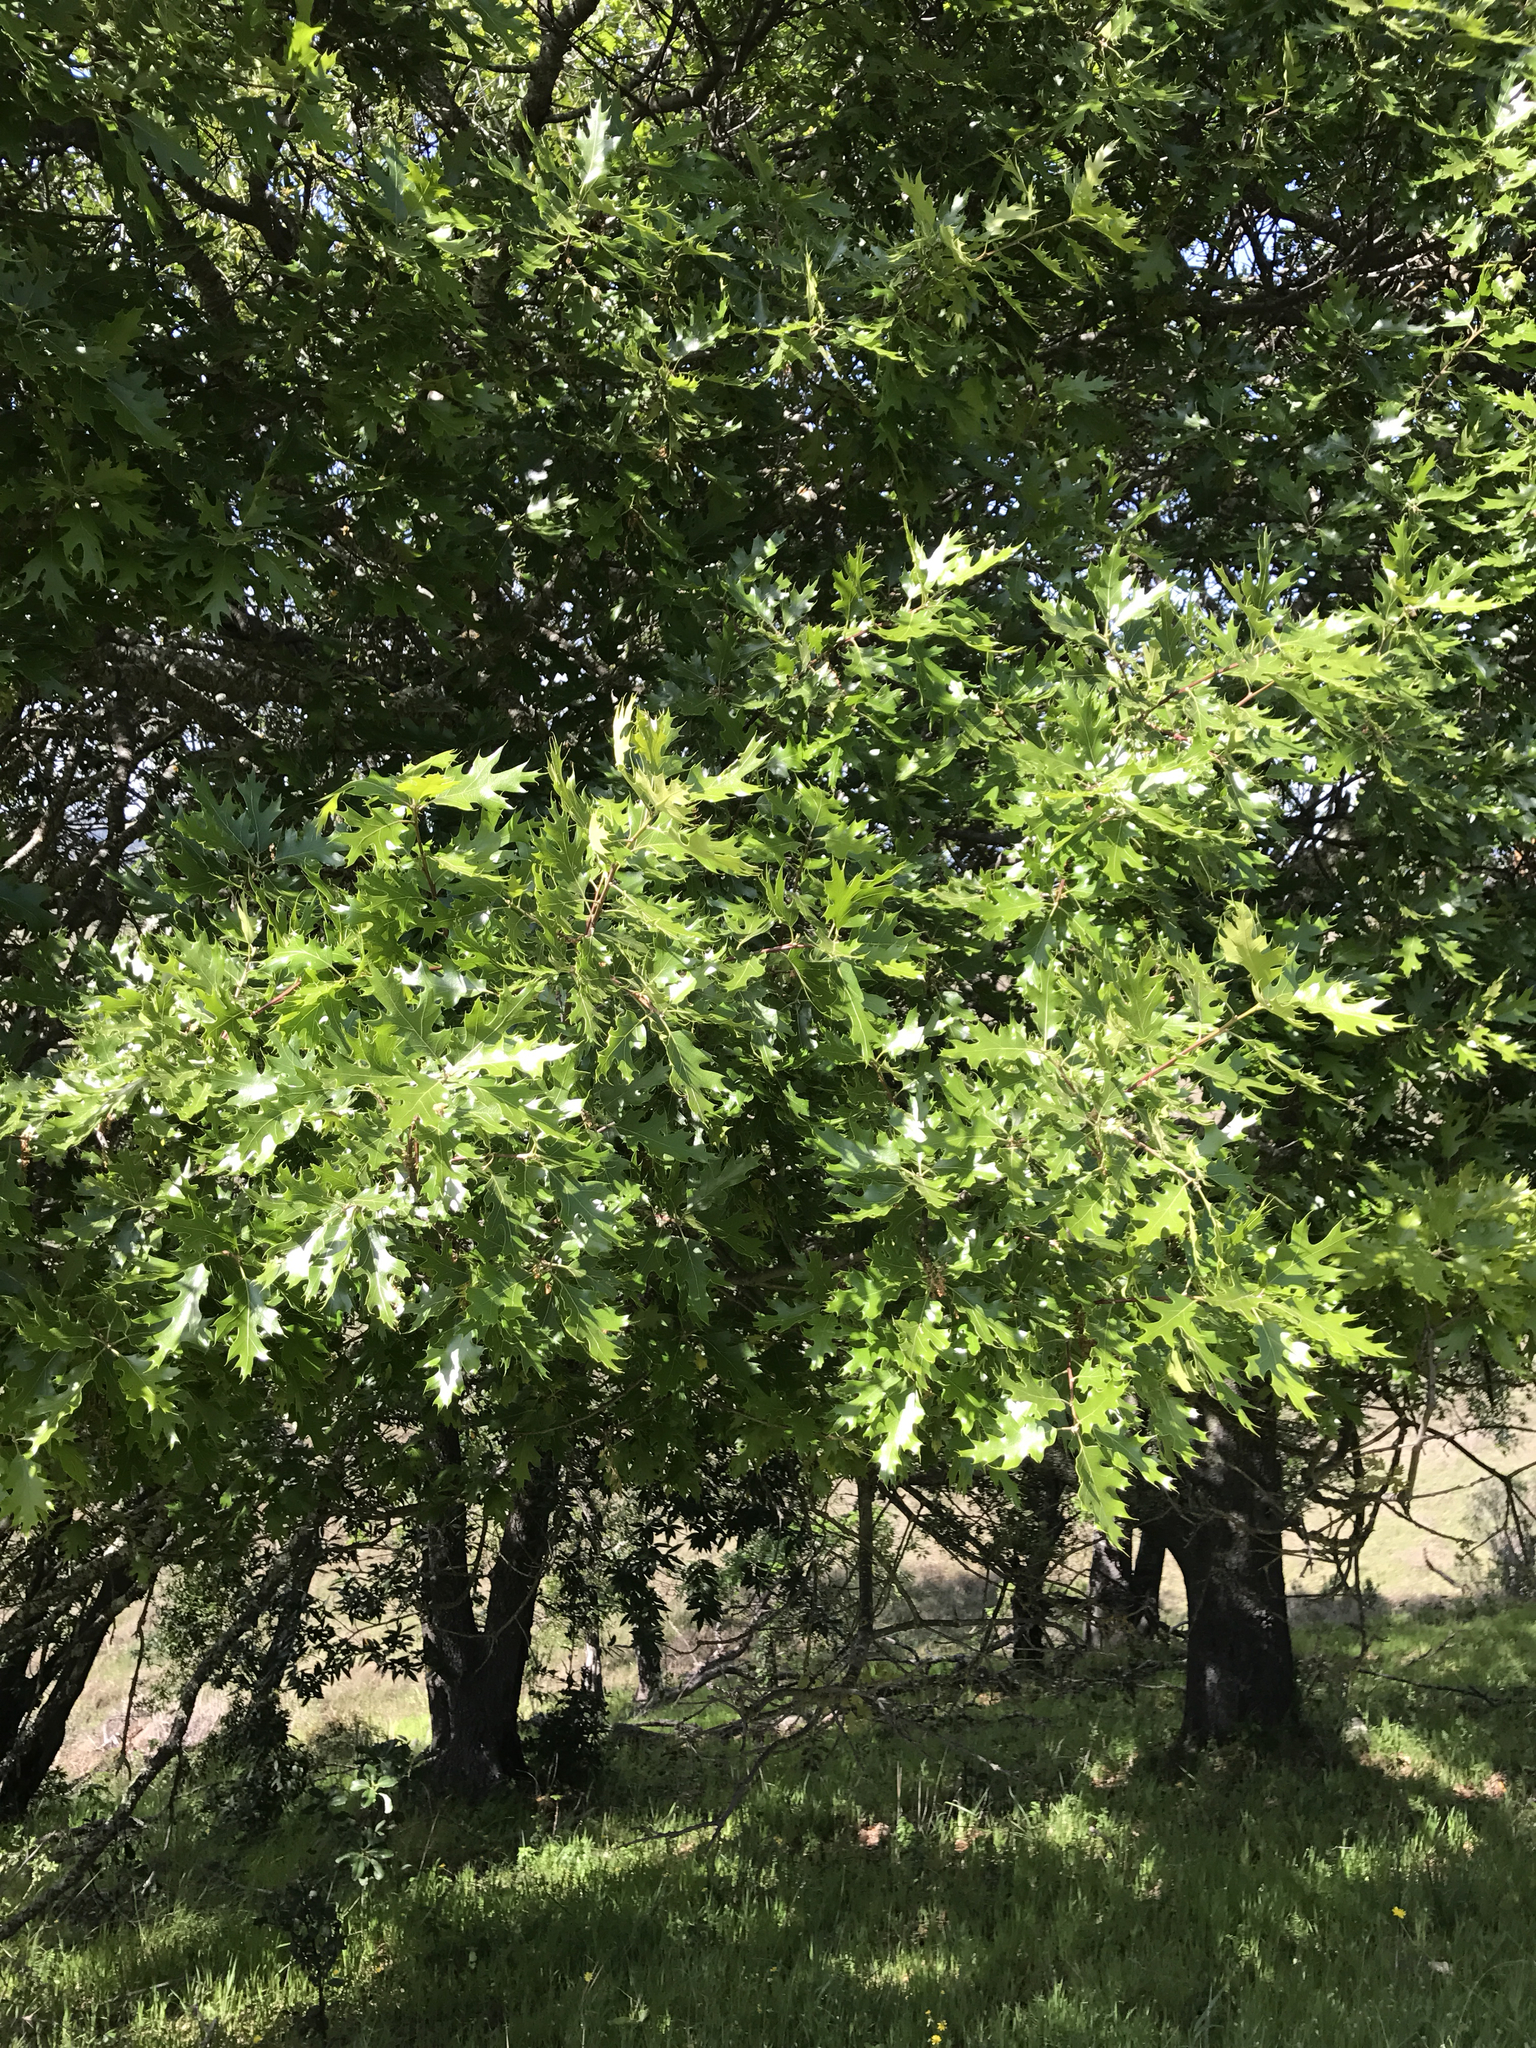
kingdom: Plantae
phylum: Tracheophyta
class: Magnoliopsida
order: Fagales
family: Fagaceae
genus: Quercus
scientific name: Quercus kelloggii
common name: California black oak
